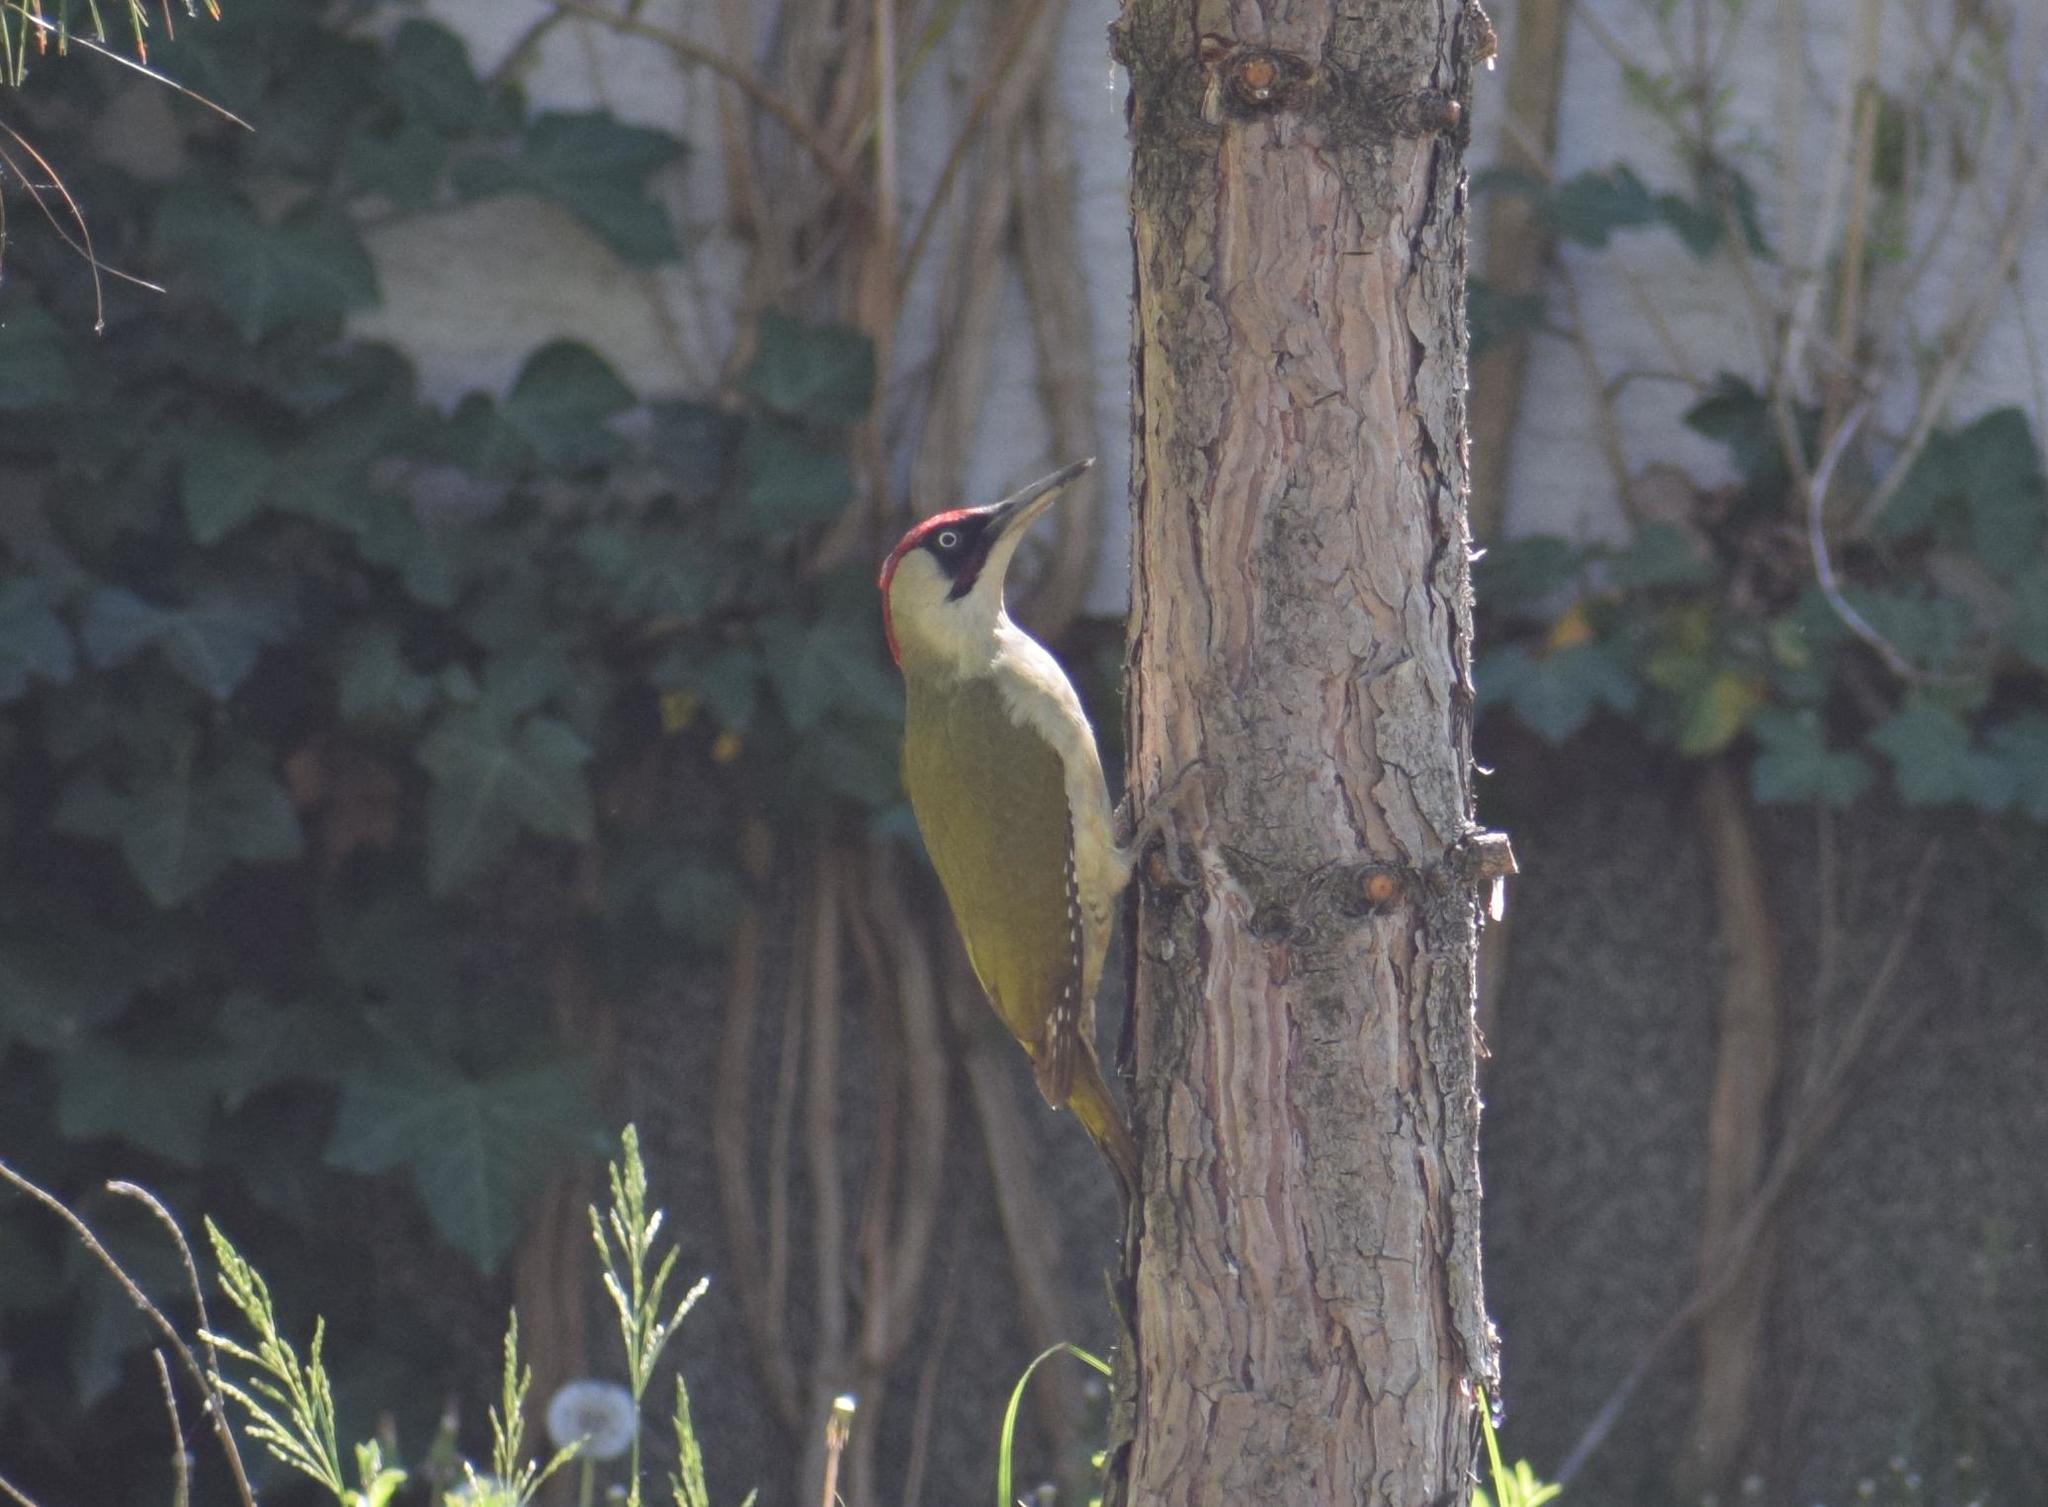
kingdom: Animalia
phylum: Chordata
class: Aves
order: Piciformes
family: Picidae
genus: Picus
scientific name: Picus viridis
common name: European green woodpecker
